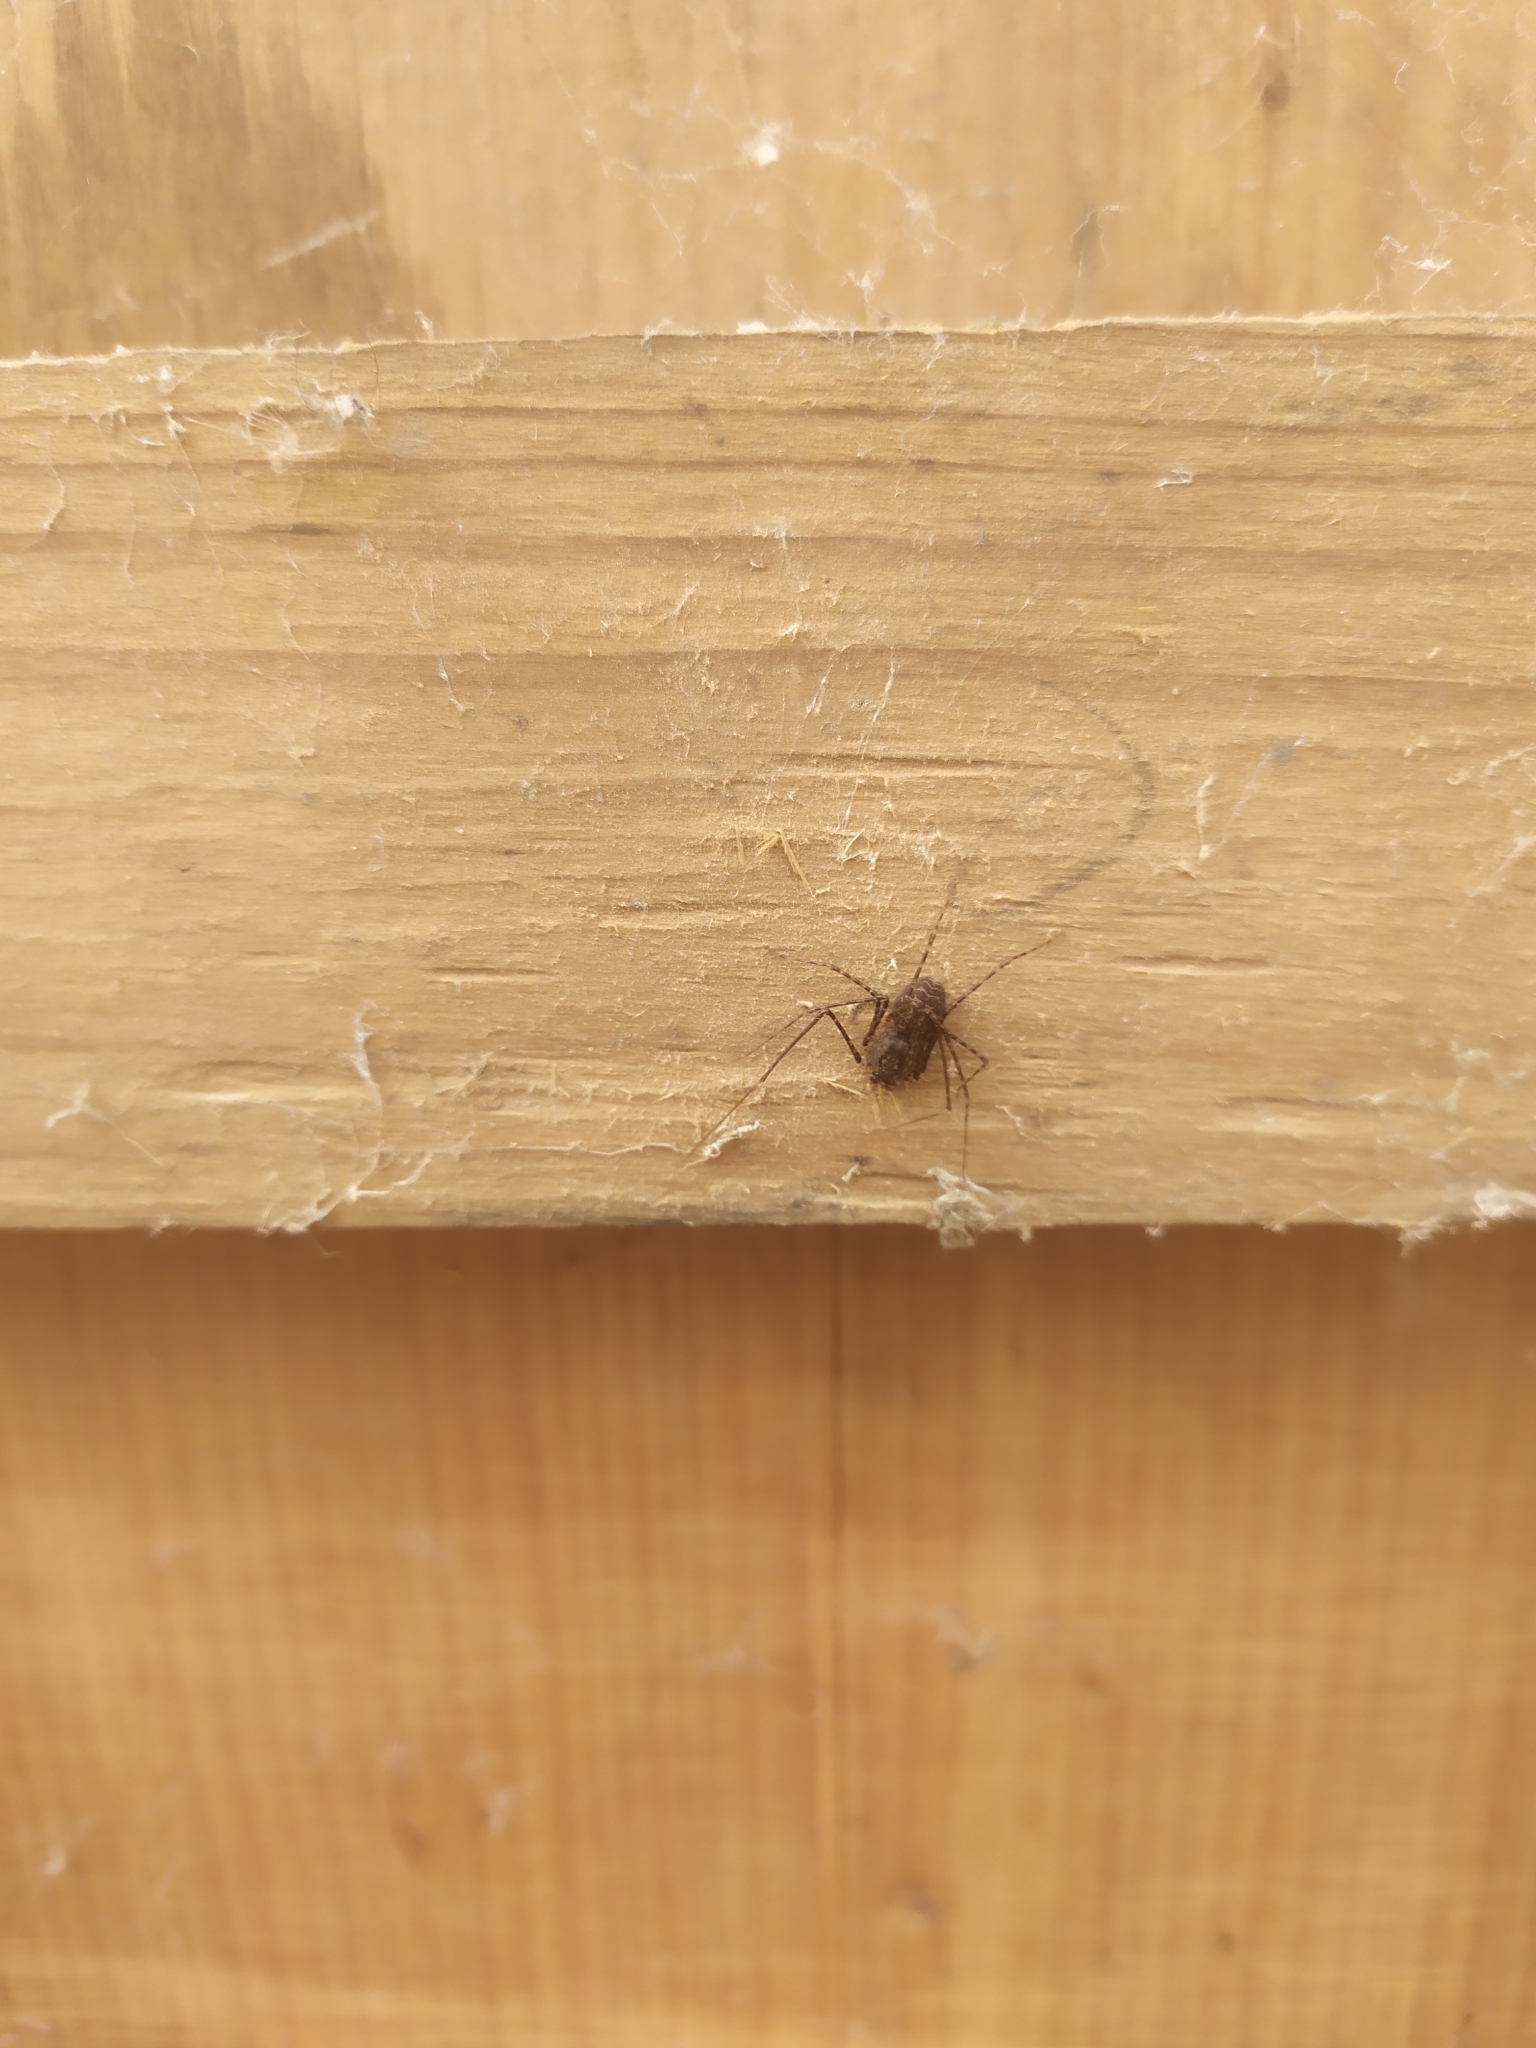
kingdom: Animalia
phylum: Arthropoda
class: Arachnida
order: Araneae
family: Scytodidae
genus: Scytodes
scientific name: Scytodes globula
